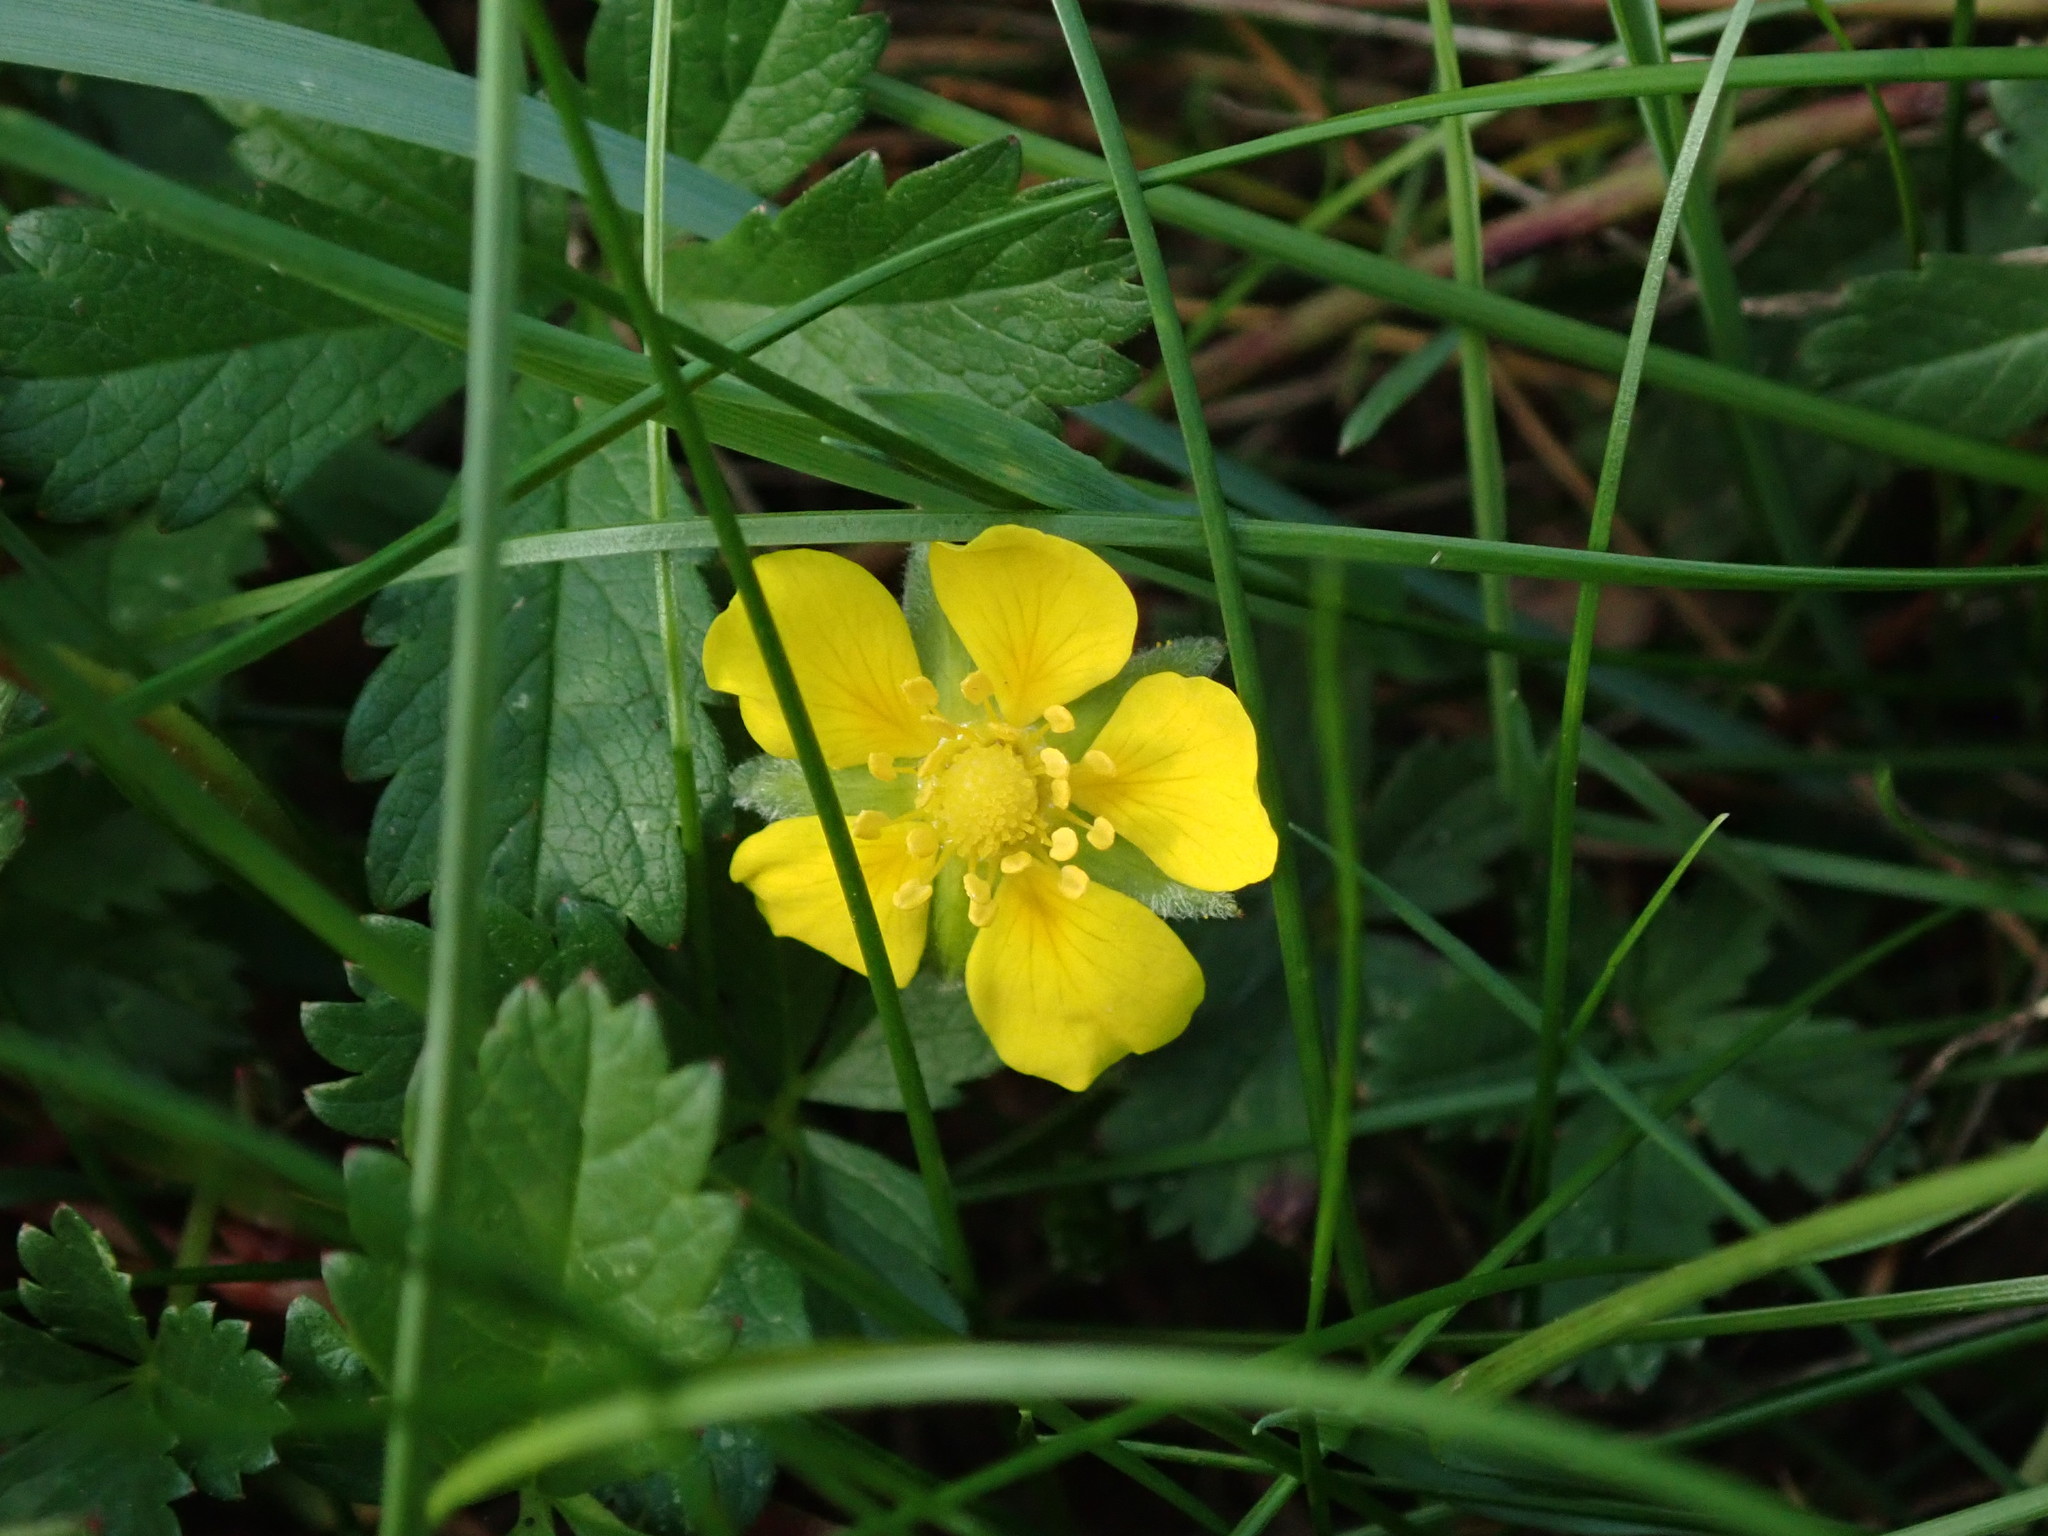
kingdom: Plantae
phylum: Tracheophyta
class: Magnoliopsida
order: Rosales
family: Rosaceae
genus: Potentilla
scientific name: Potentilla reptans
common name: Creeping cinquefoil
